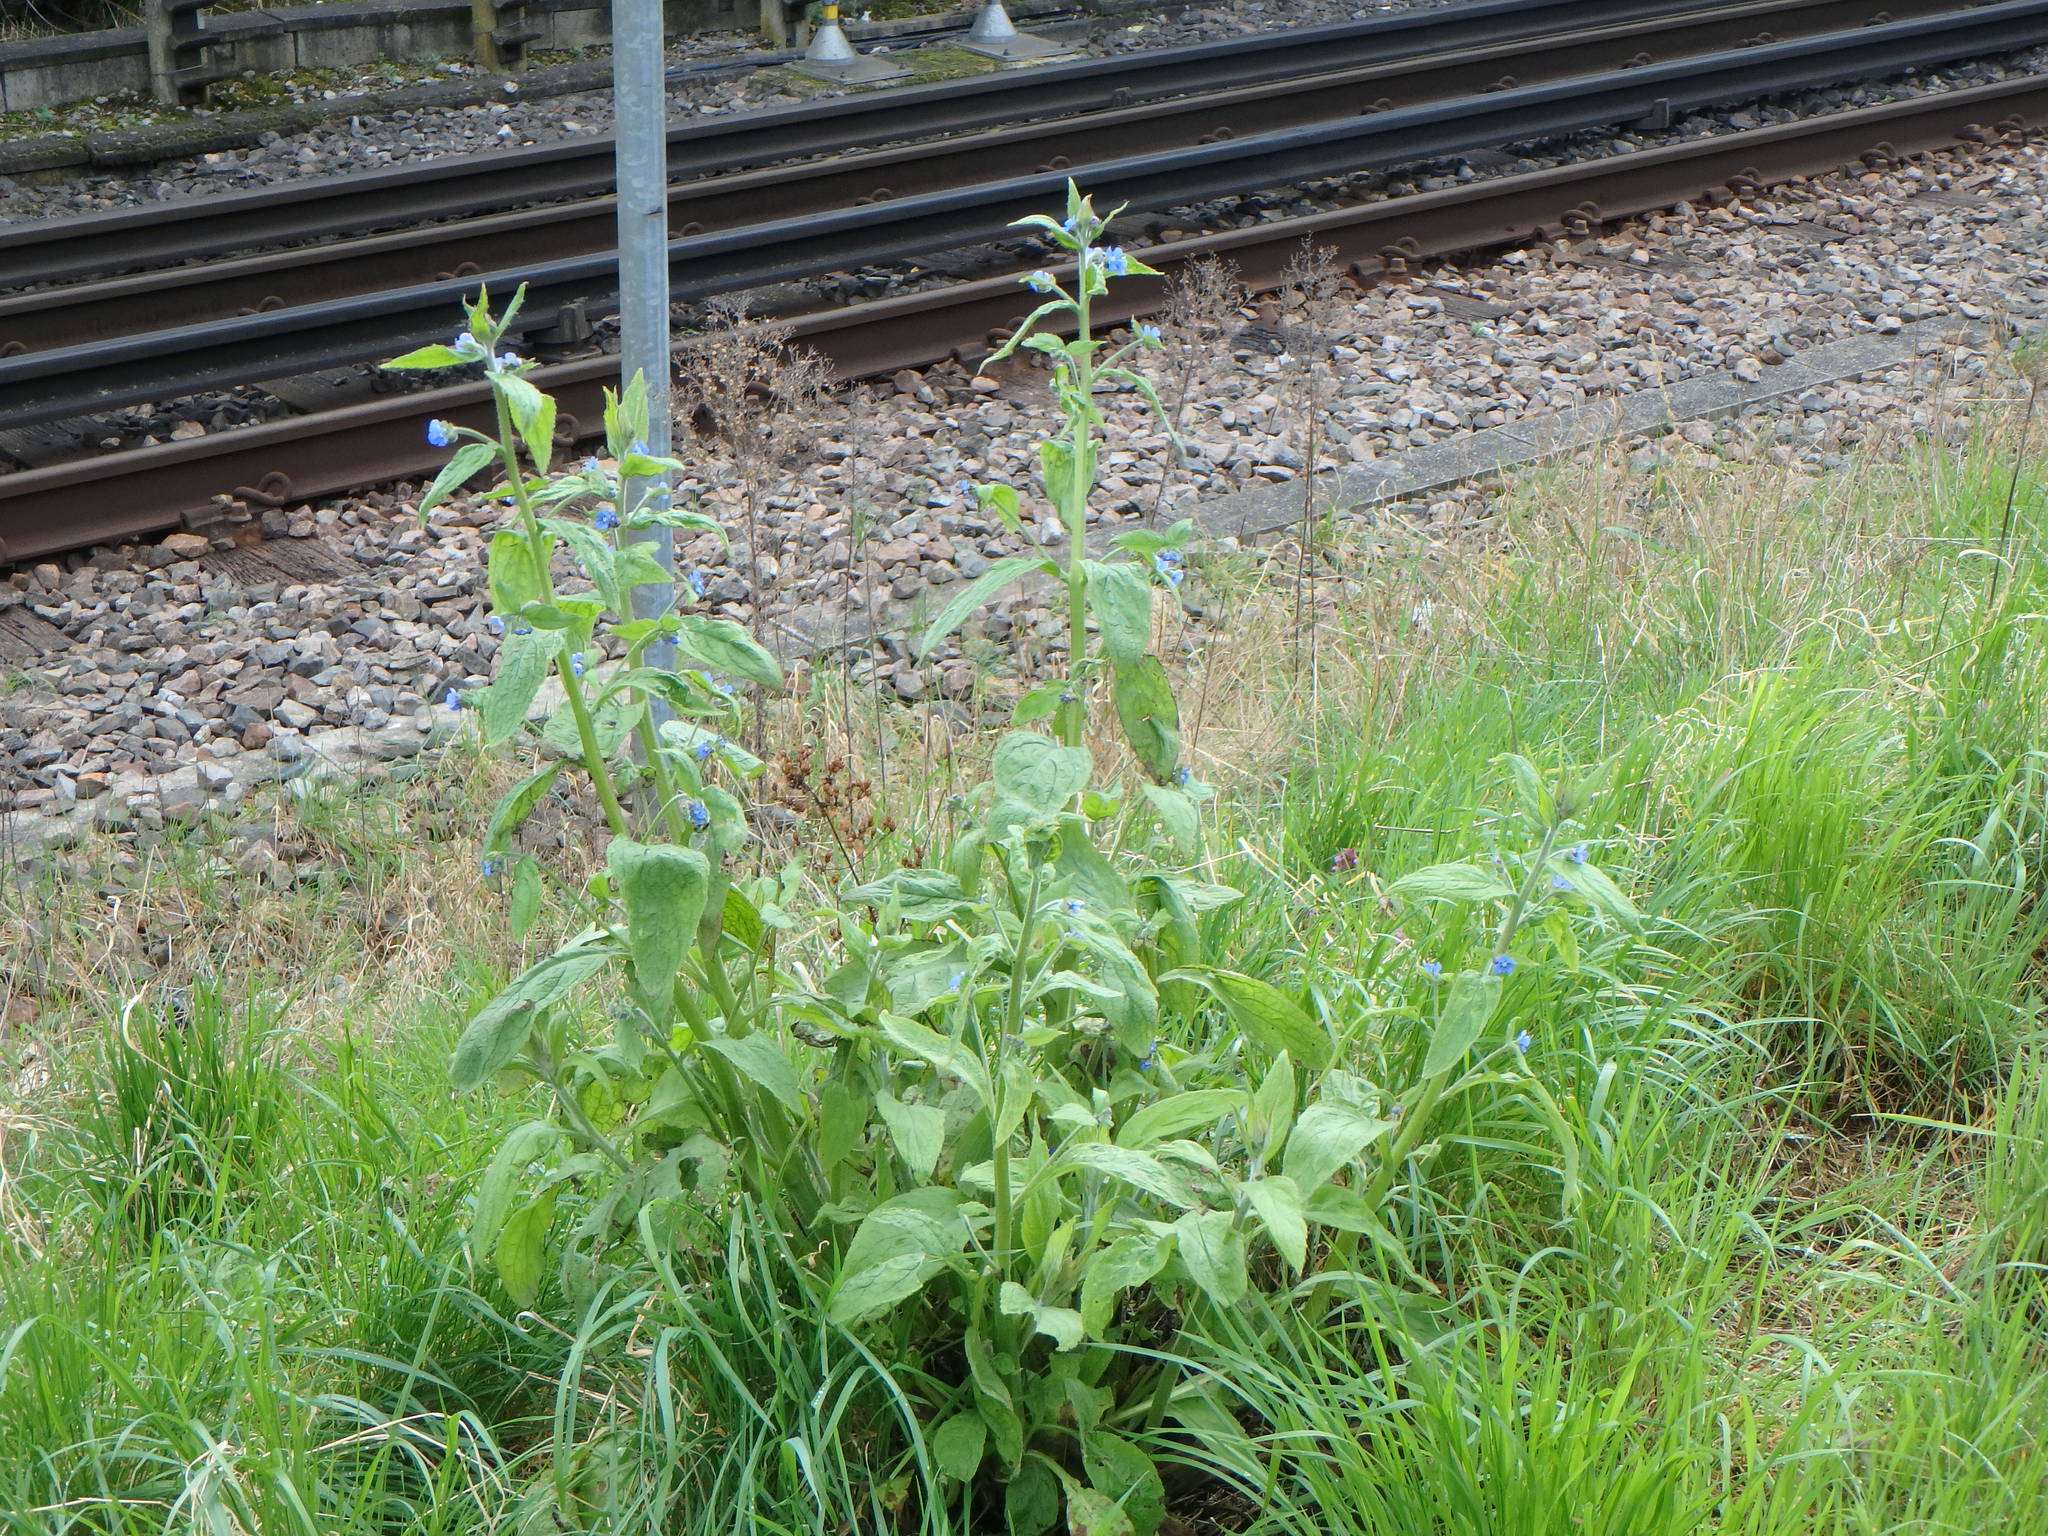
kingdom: Plantae
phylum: Tracheophyta
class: Magnoliopsida
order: Boraginales
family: Boraginaceae
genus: Pentaglottis
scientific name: Pentaglottis sempervirens
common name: Green alkanet
